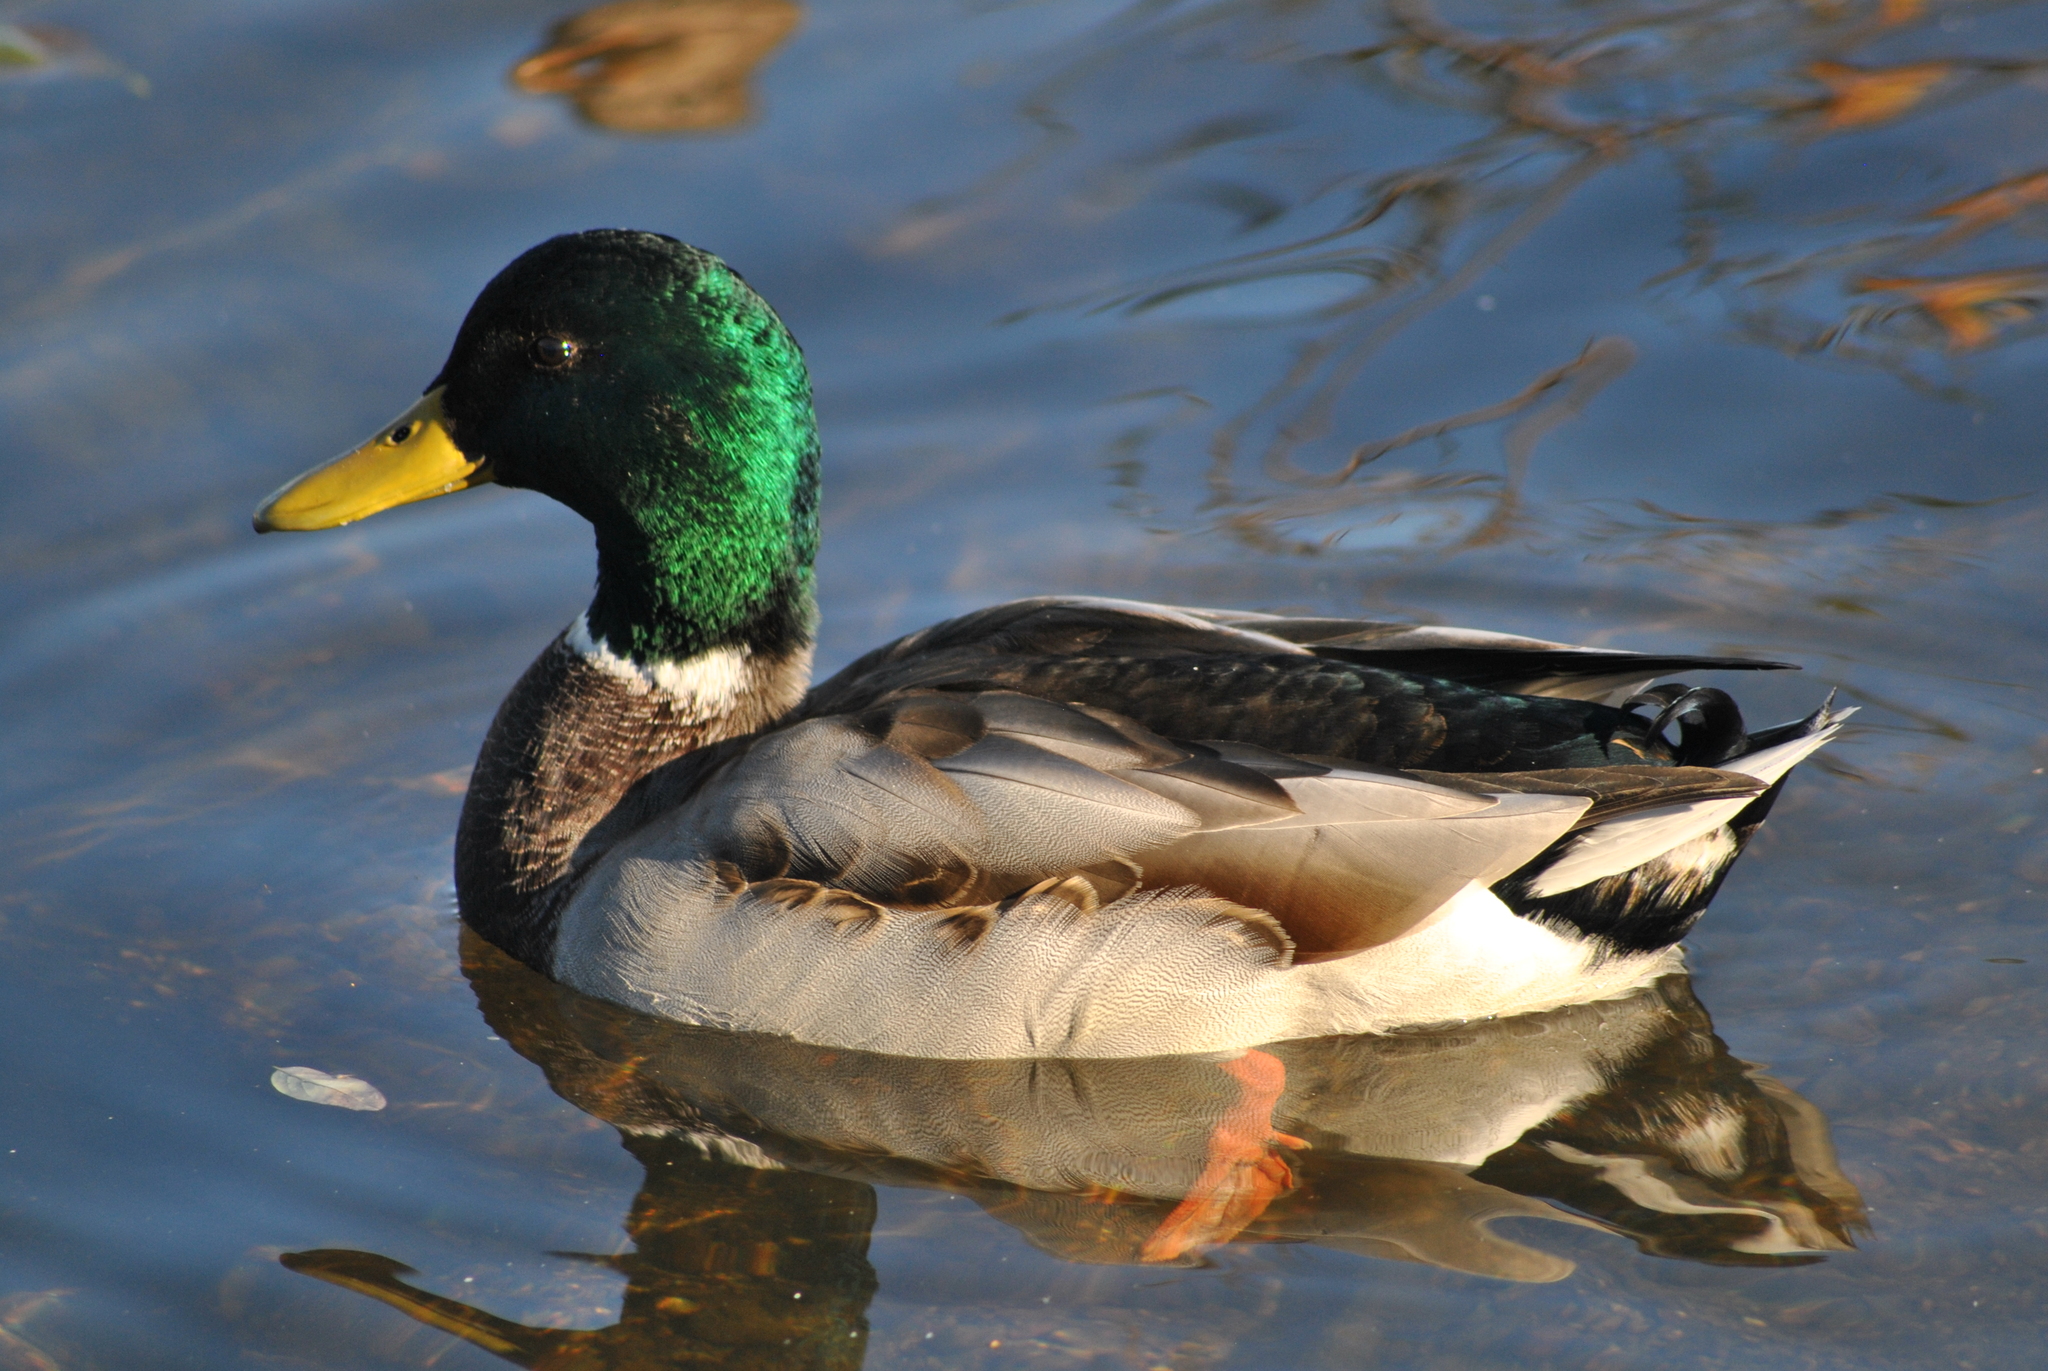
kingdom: Animalia
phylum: Chordata
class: Aves
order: Anseriformes
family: Anatidae
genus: Anas
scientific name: Anas platyrhynchos
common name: Mallard
